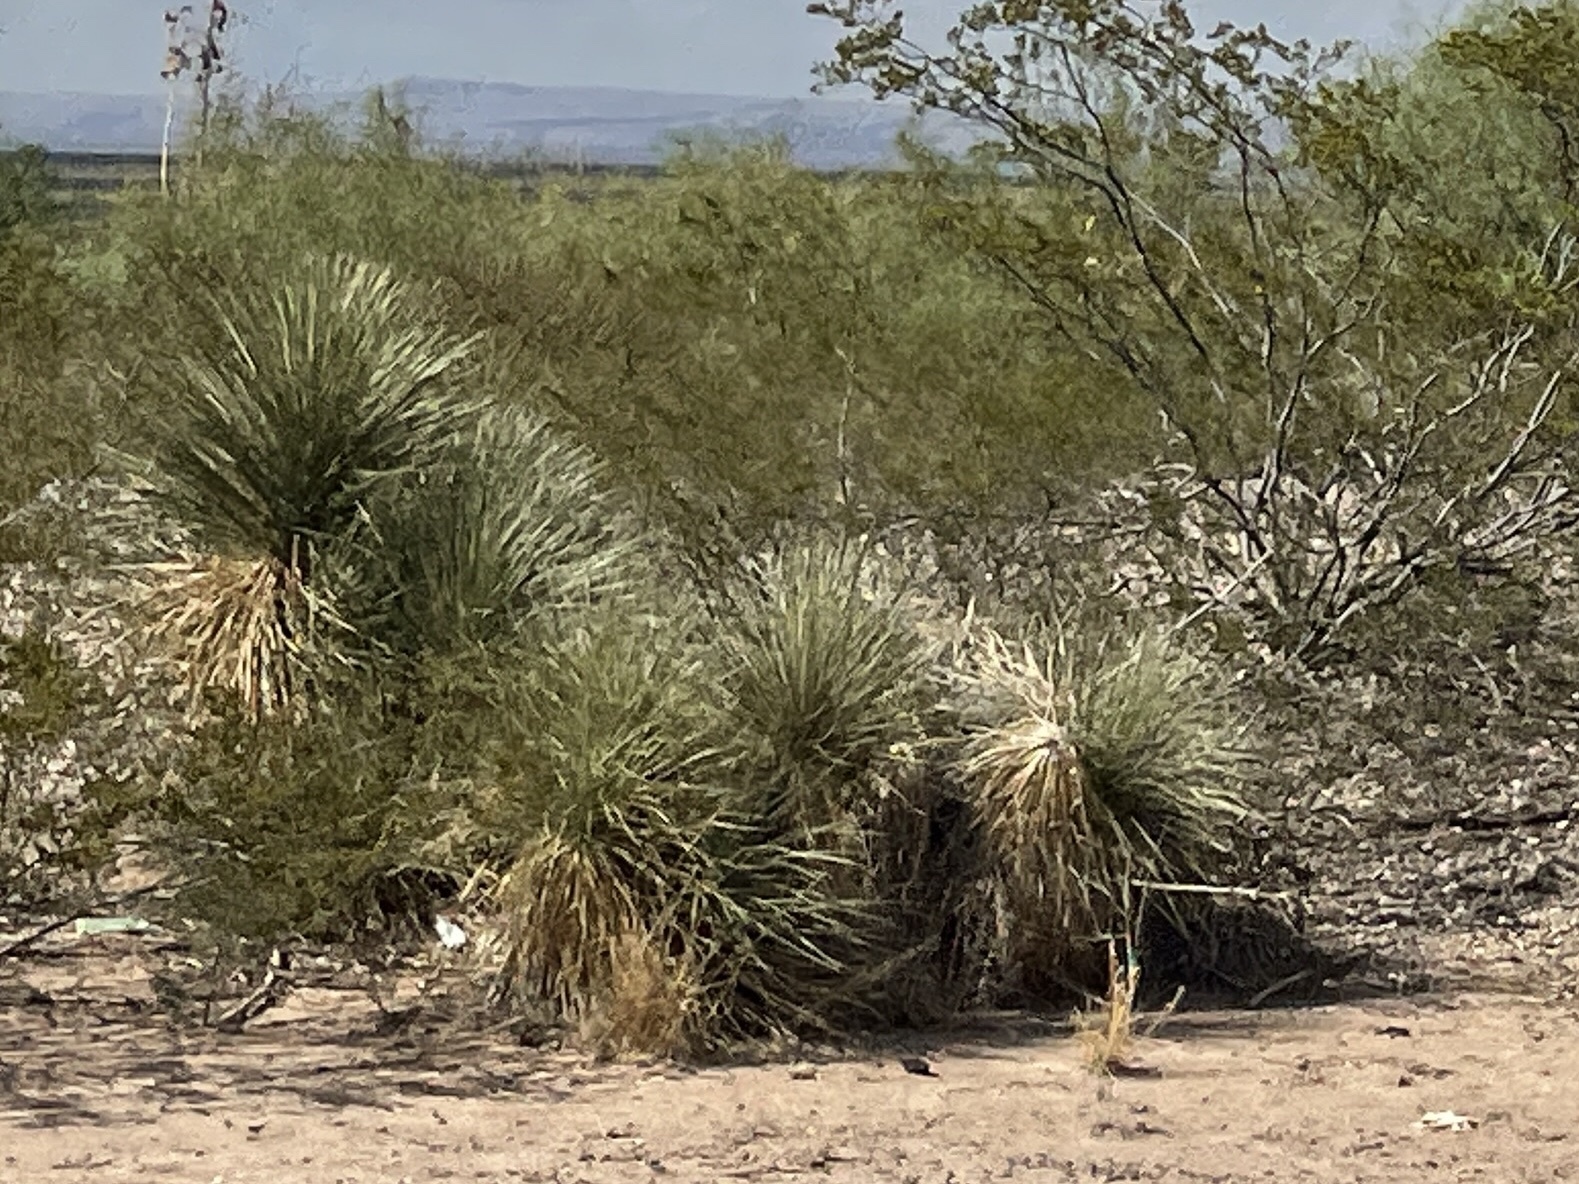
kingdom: Plantae
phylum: Tracheophyta
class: Liliopsida
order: Asparagales
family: Asparagaceae
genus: Yucca
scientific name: Yucca elata
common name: Palmella
